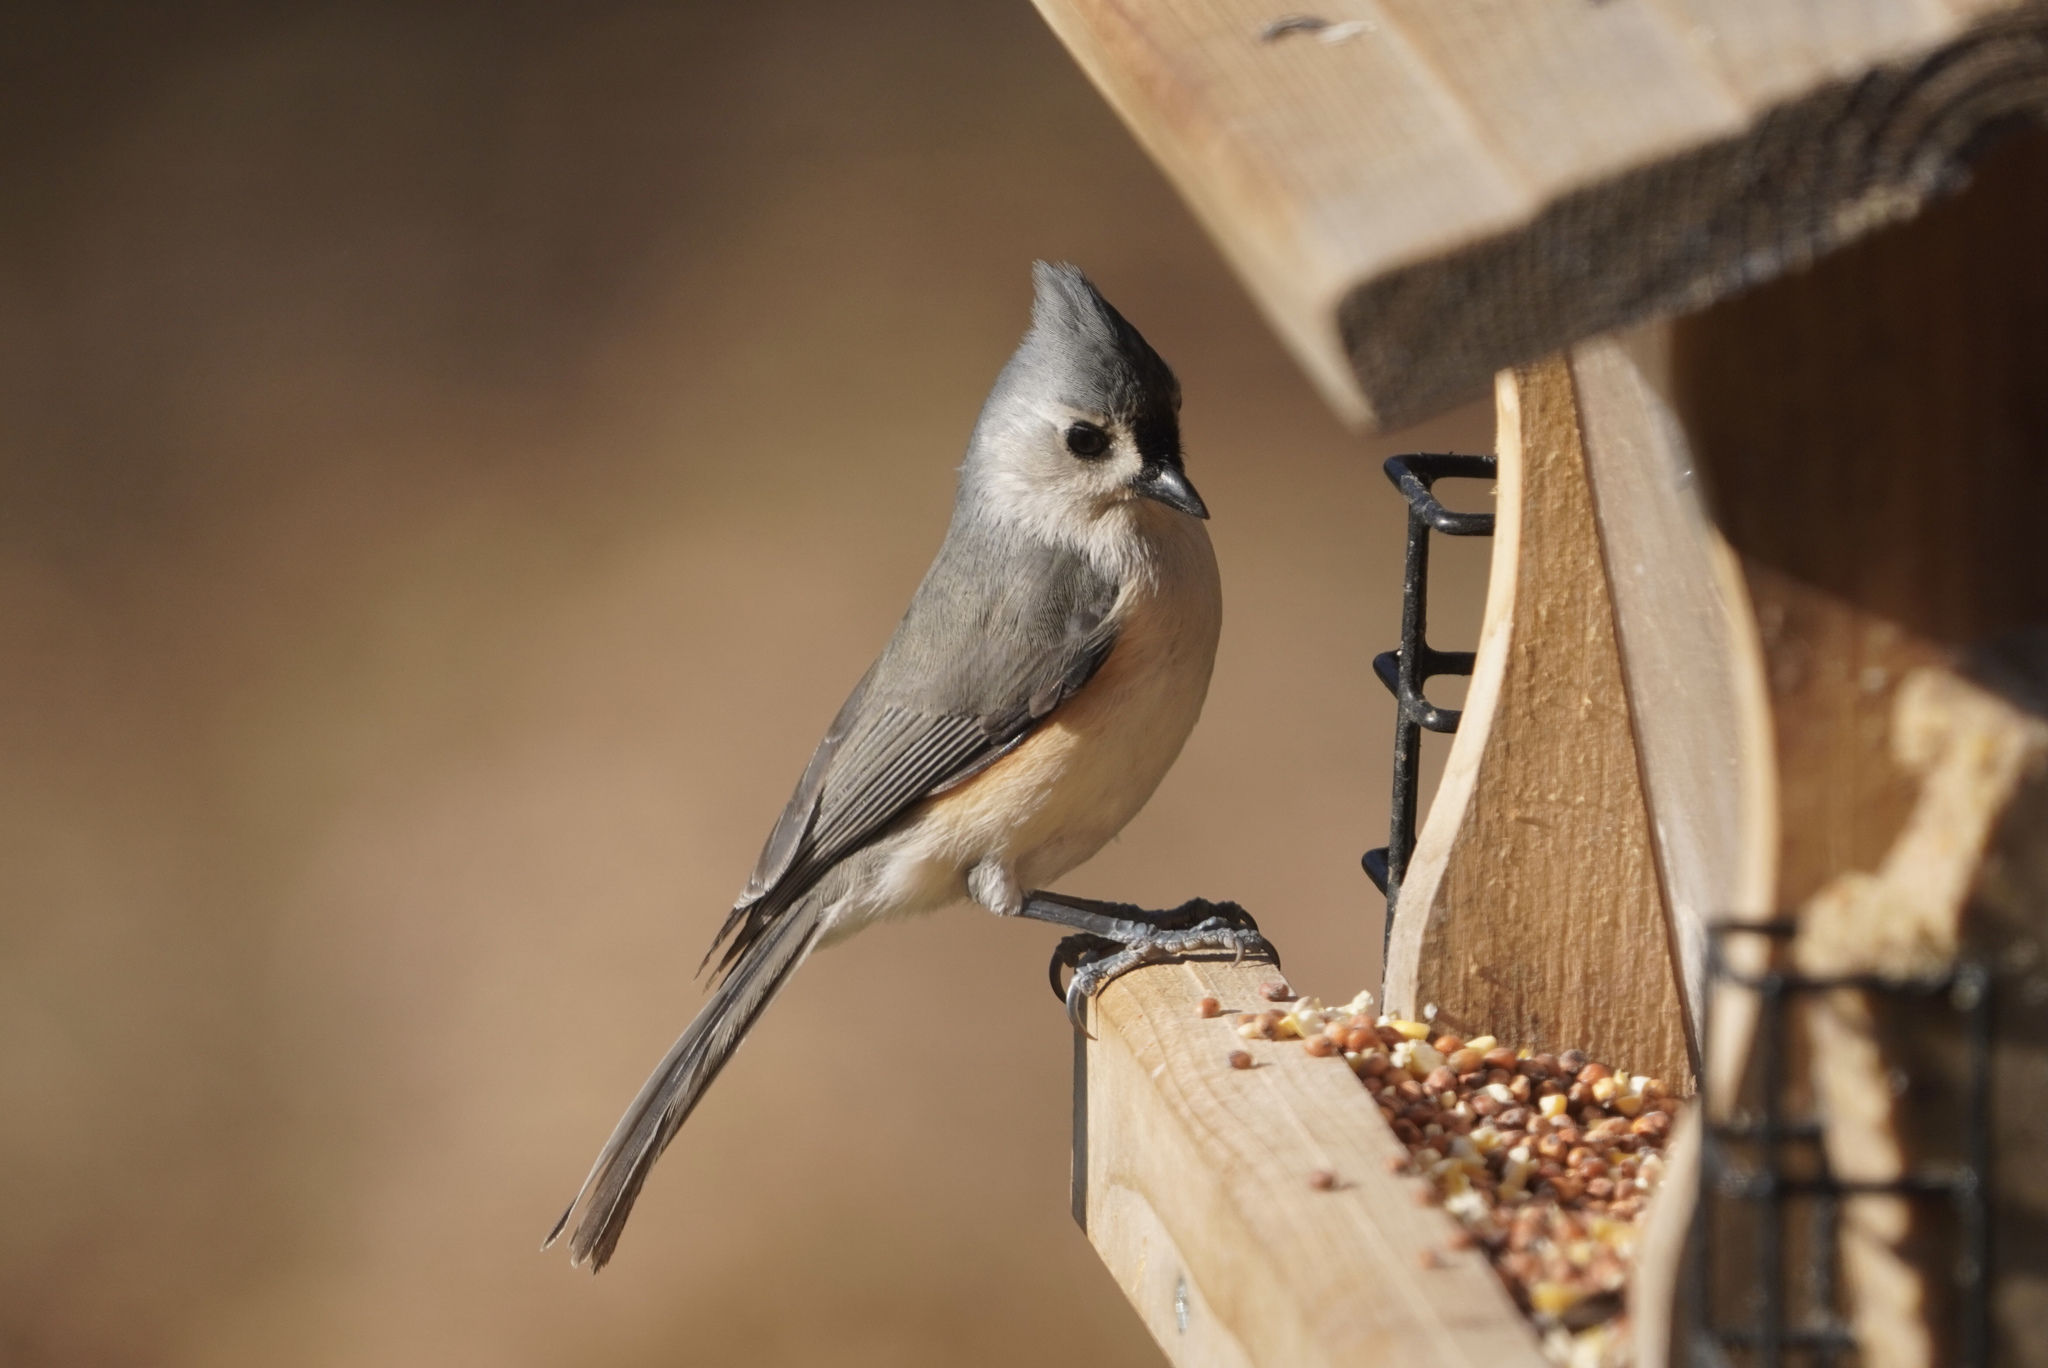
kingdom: Animalia
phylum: Chordata
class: Aves
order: Passeriformes
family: Paridae
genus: Baeolophus
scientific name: Baeolophus bicolor
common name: Tufted titmouse
